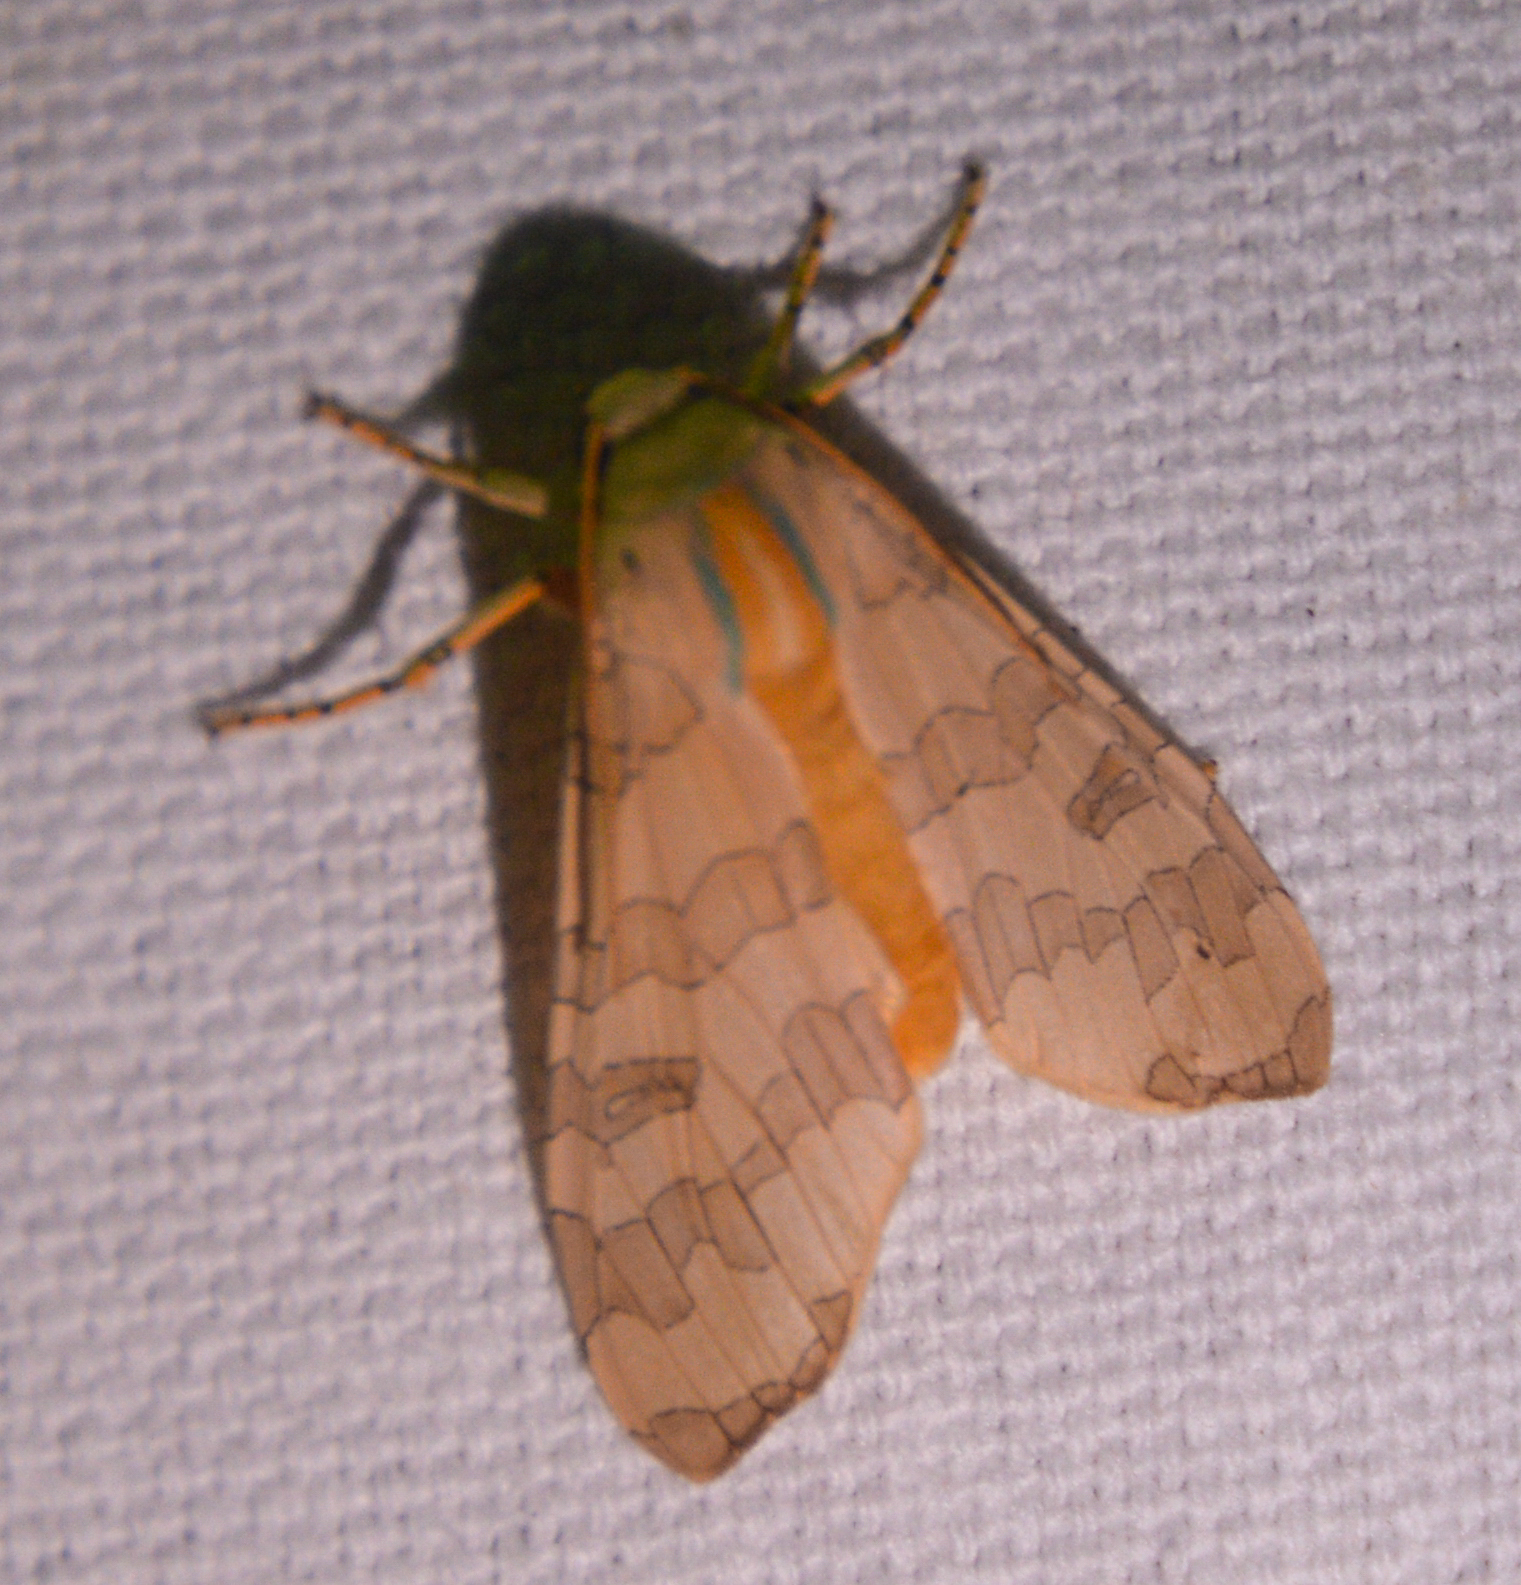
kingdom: Animalia
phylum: Arthropoda
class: Insecta
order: Lepidoptera
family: Erebidae
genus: Halysidota
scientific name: Halysidota
